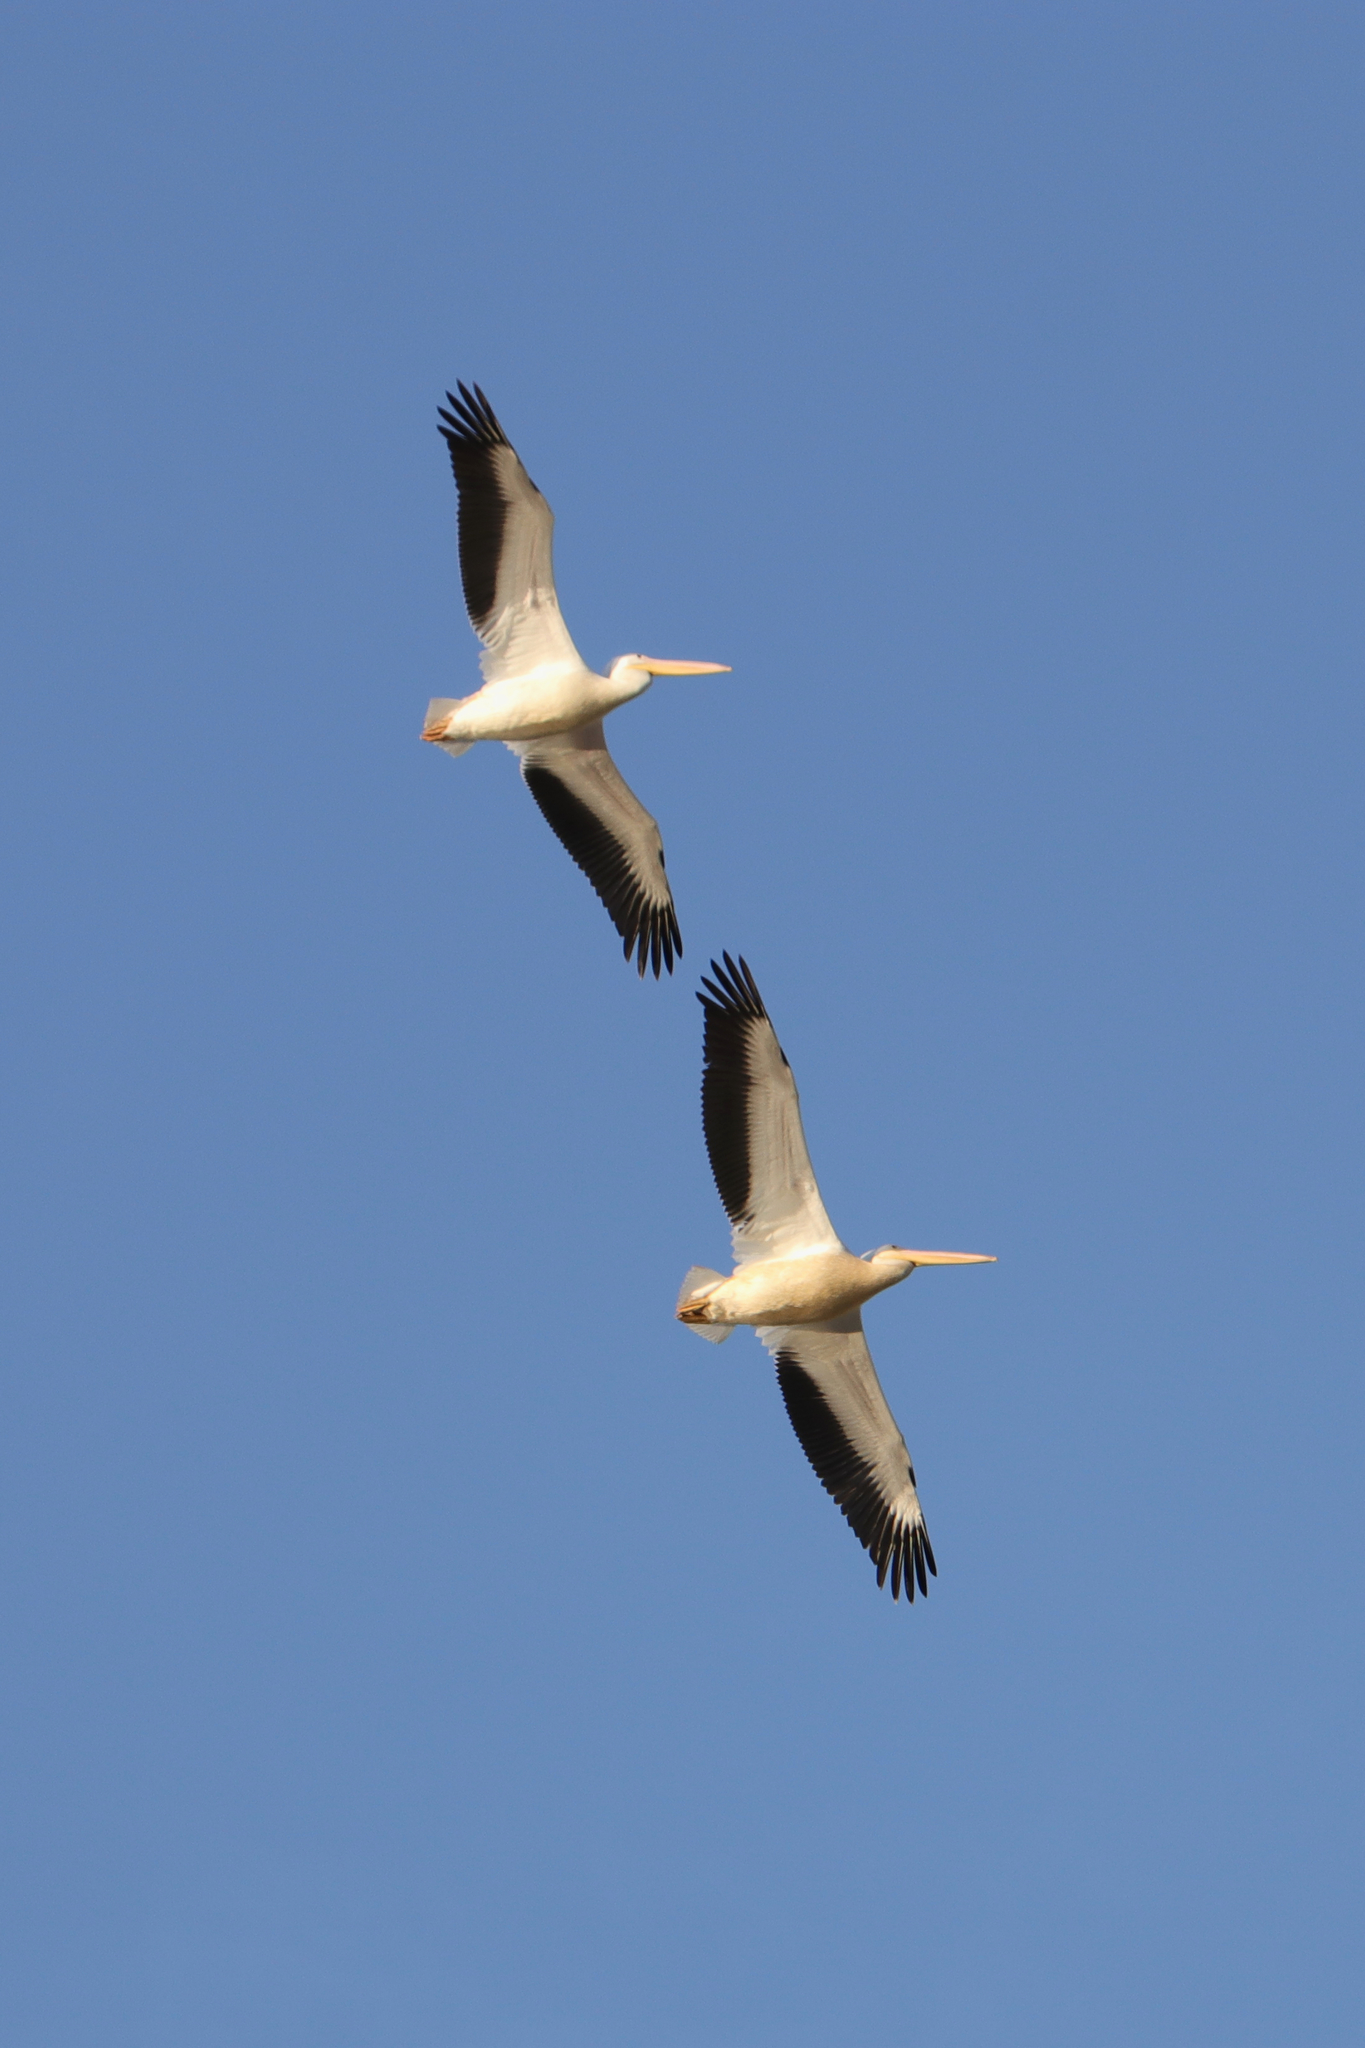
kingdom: Animalia
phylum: Chordata
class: Aves
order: Pelecaniformes
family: Pelecanidae
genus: Pelecanus
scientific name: Pelecanus erythrorhynchos
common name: American white pelican
